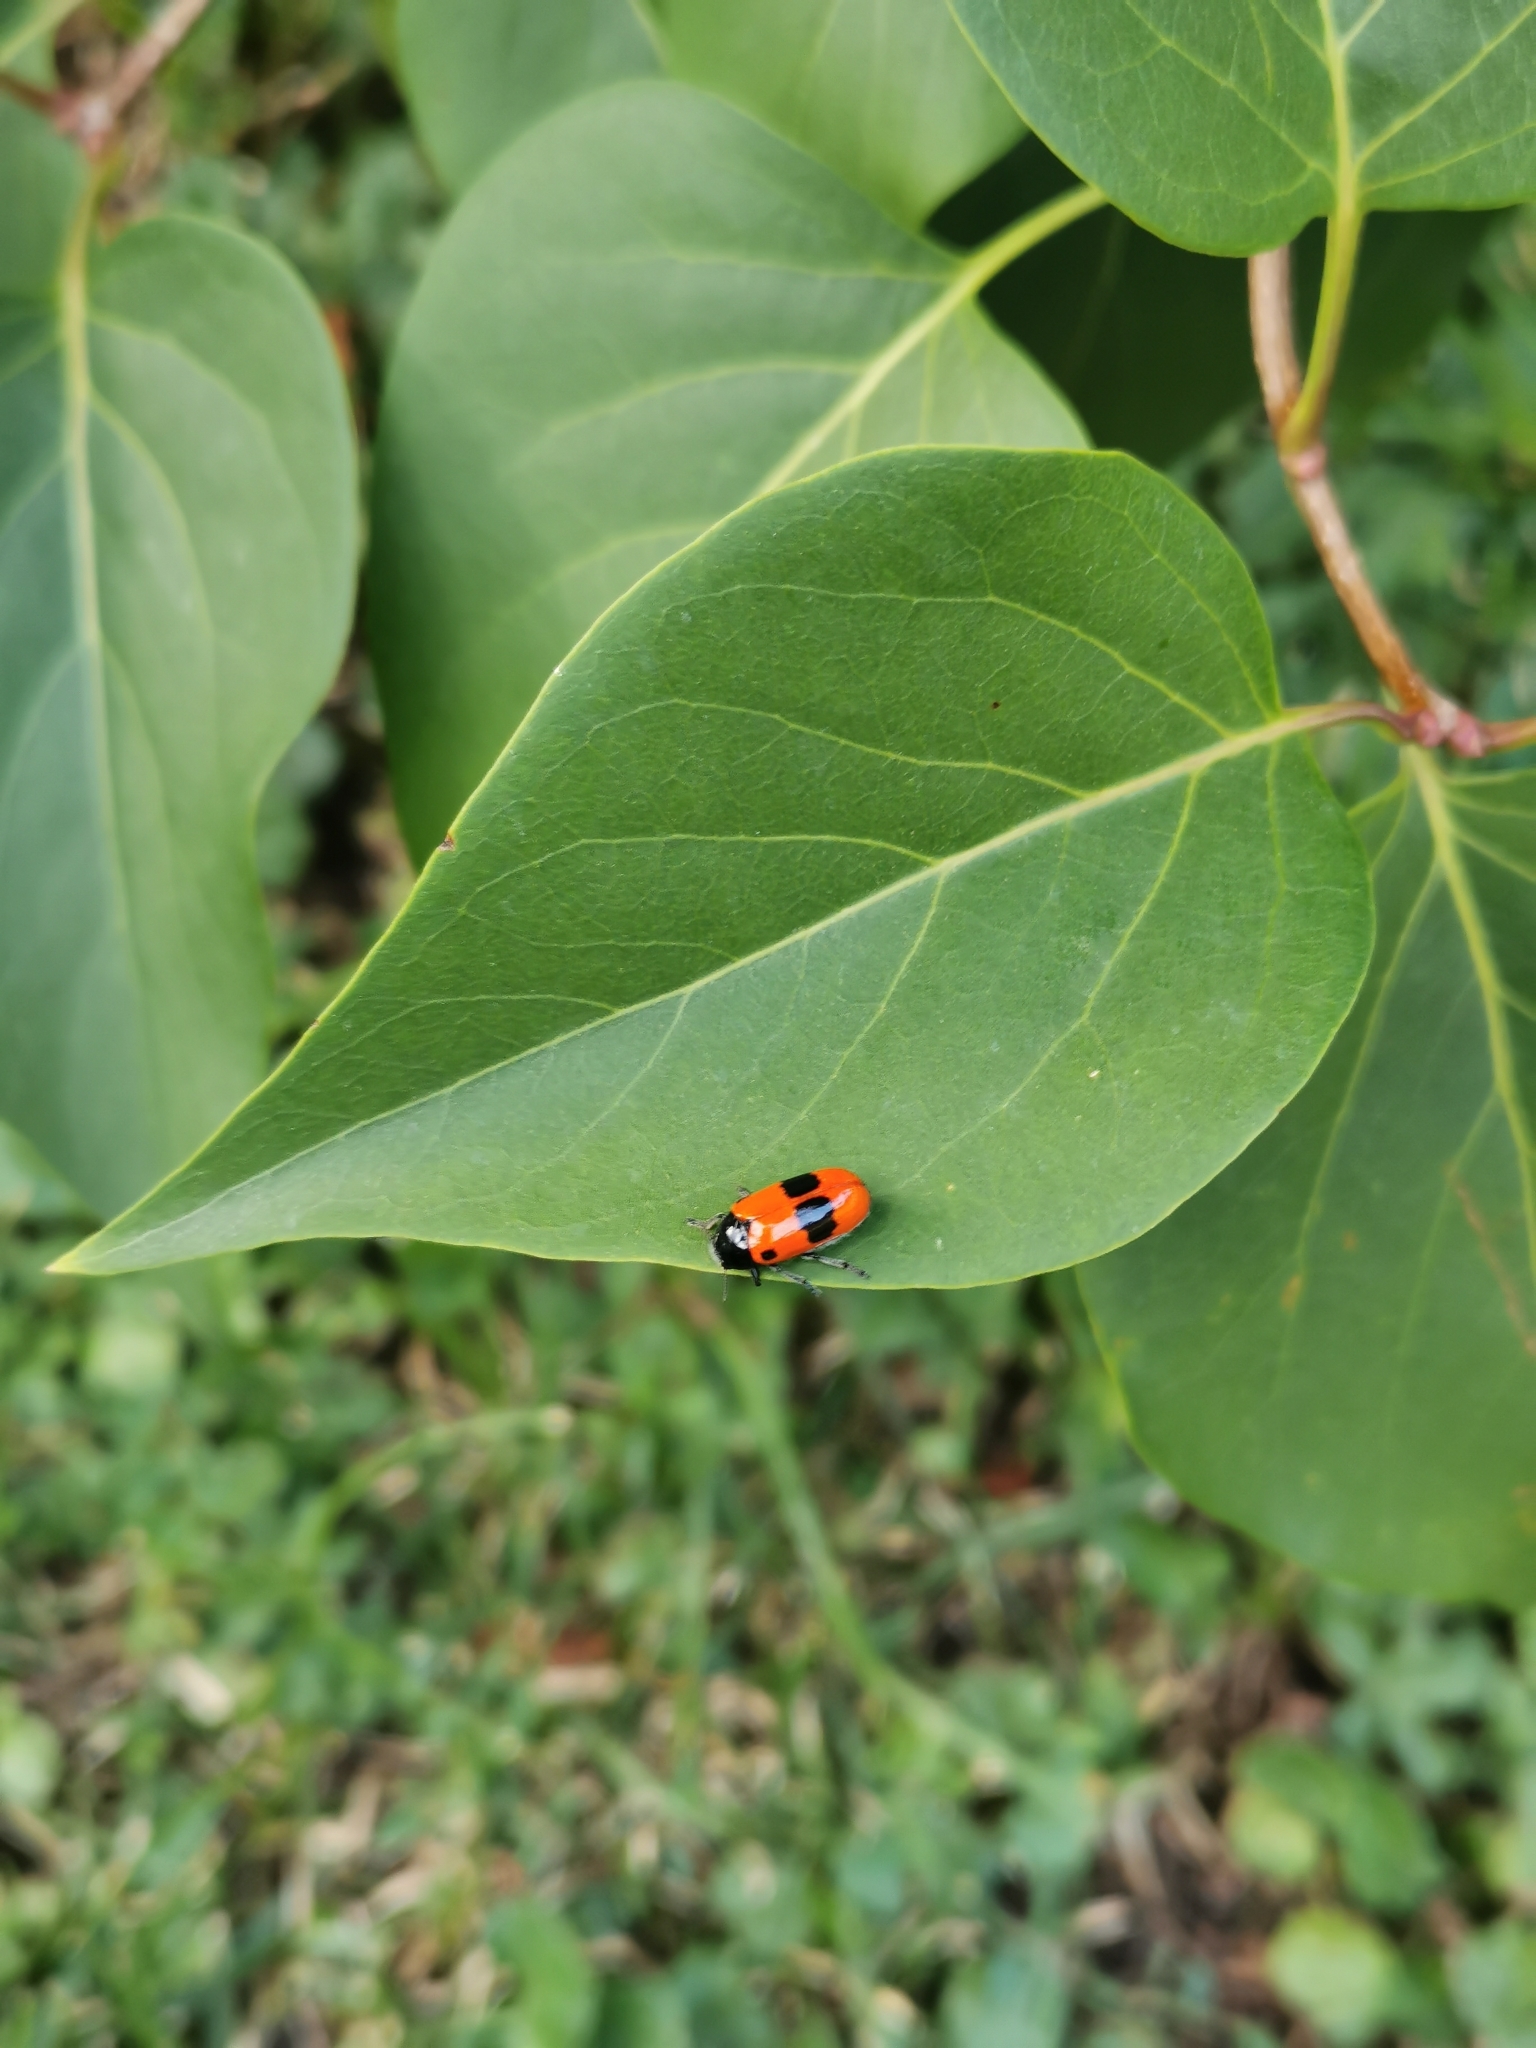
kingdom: Animalia
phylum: Arthropoda
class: Insecta
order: Coleoptera
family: Chrysomelidae
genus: Clytra
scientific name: Clytra laeviuscula
